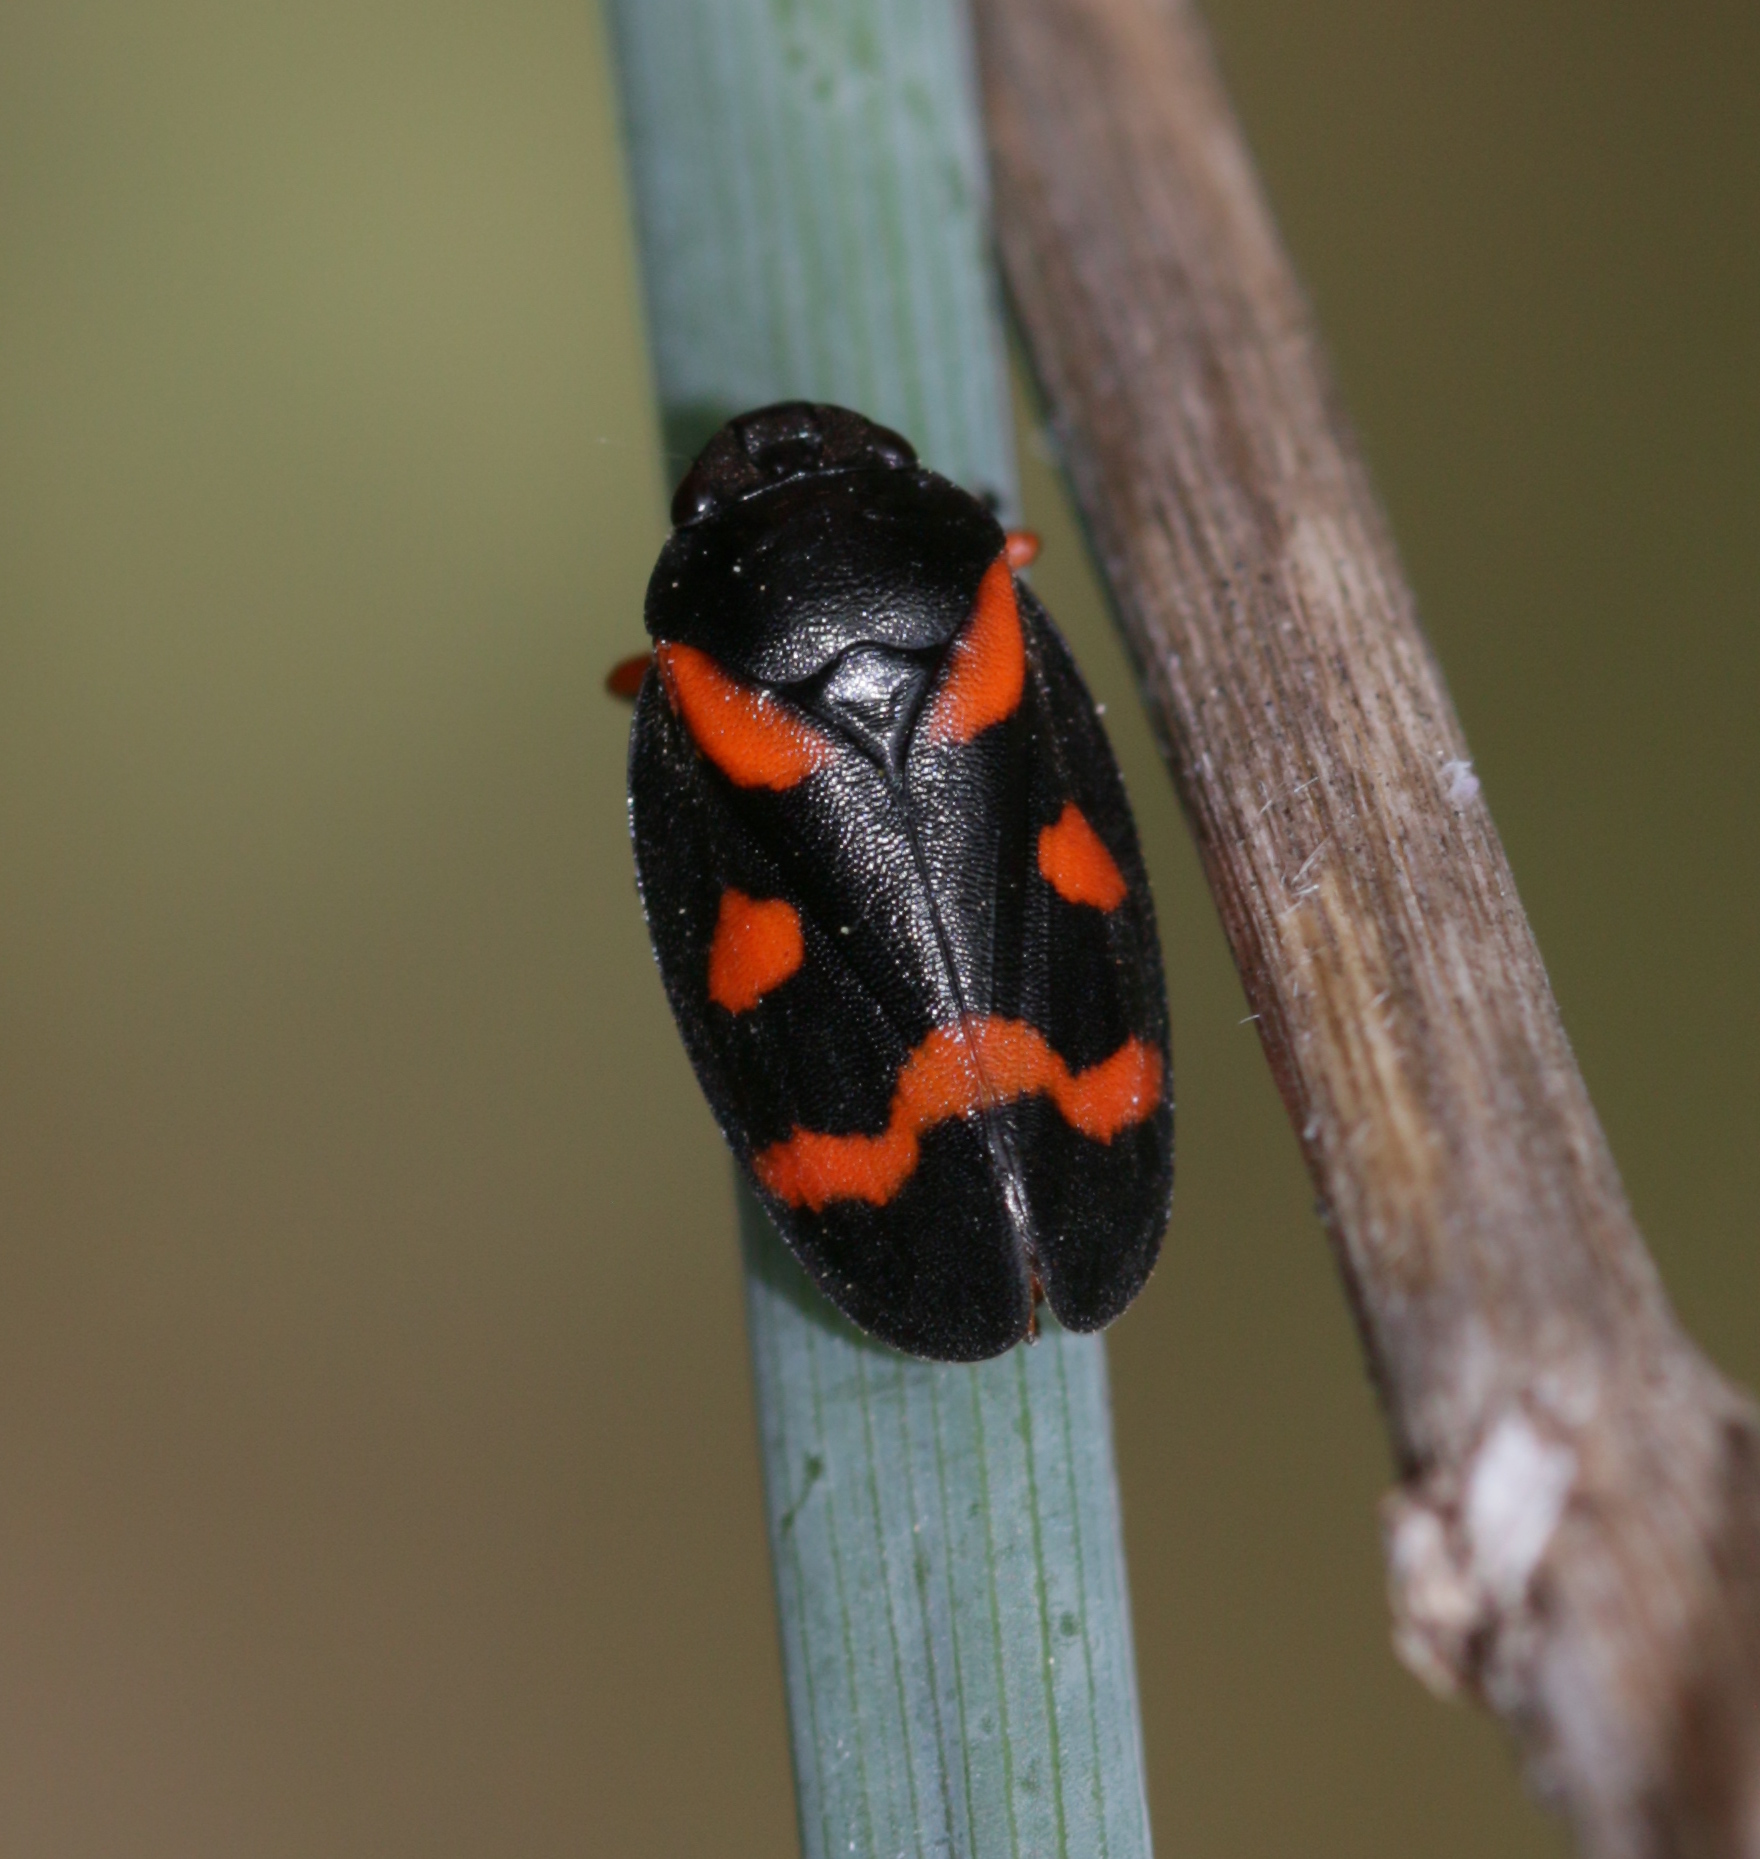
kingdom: Animalia
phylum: Arthropoda
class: Insecta
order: Hemiptera
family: Cercopidae
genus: Cercopis
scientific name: Cercopis intermedia
